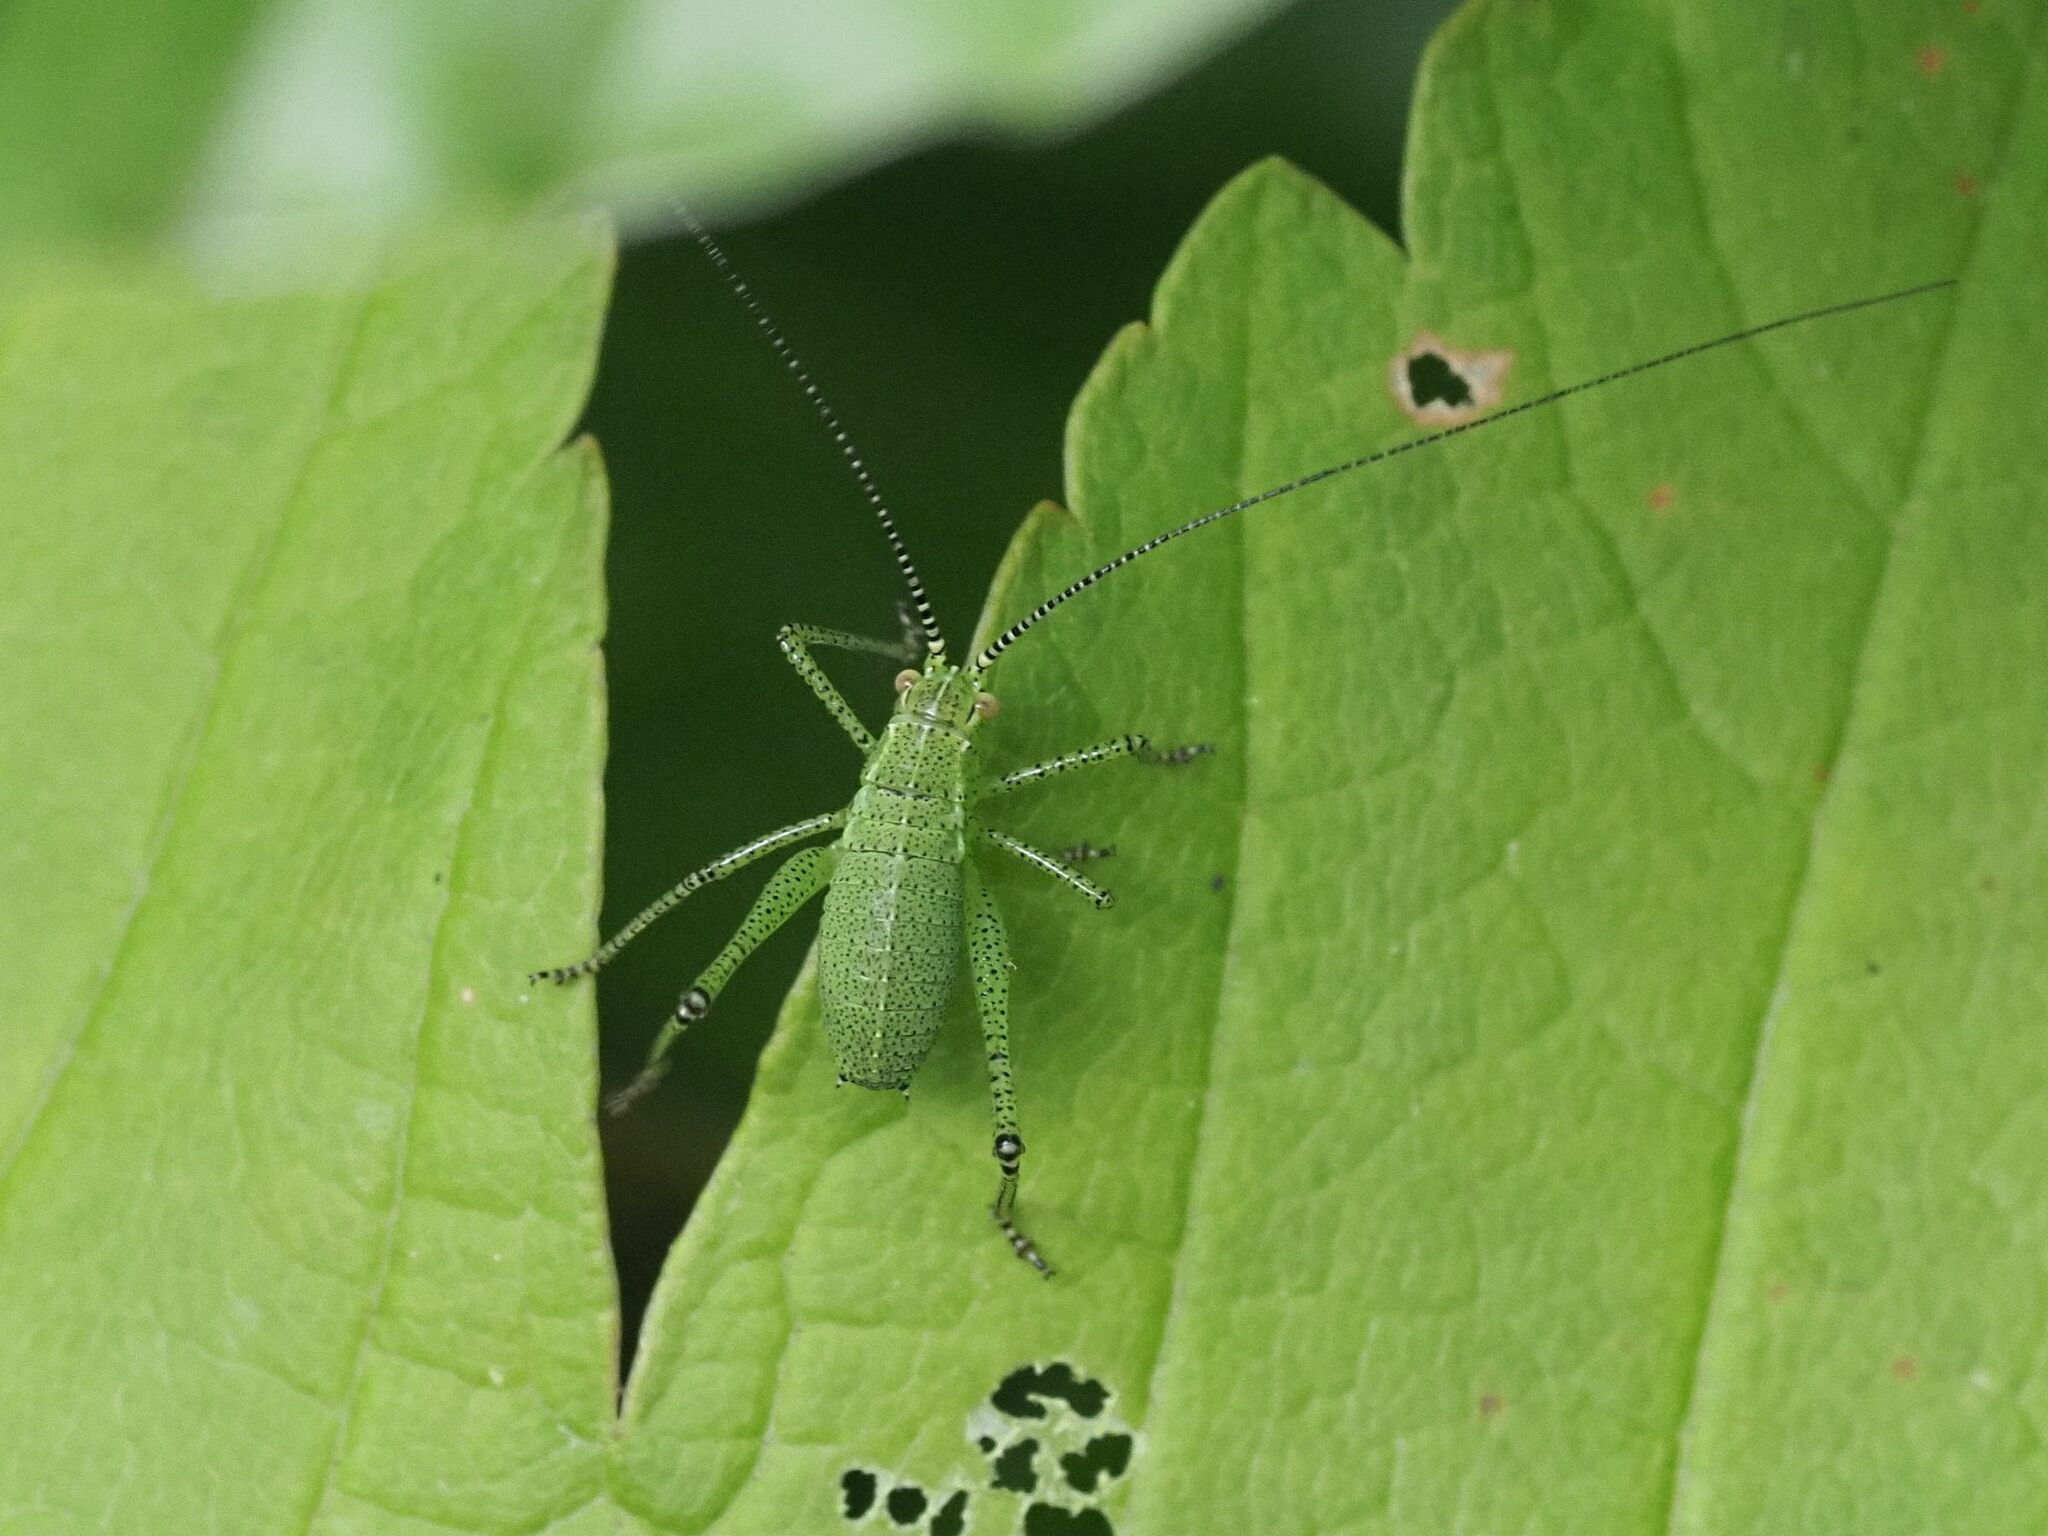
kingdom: Animalia
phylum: Arthropoda
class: Insecta
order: Orthoptera
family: Tettigoniidae
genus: Leptophyes
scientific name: Leptophyes punctatissima
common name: Speckled bush-cricket
